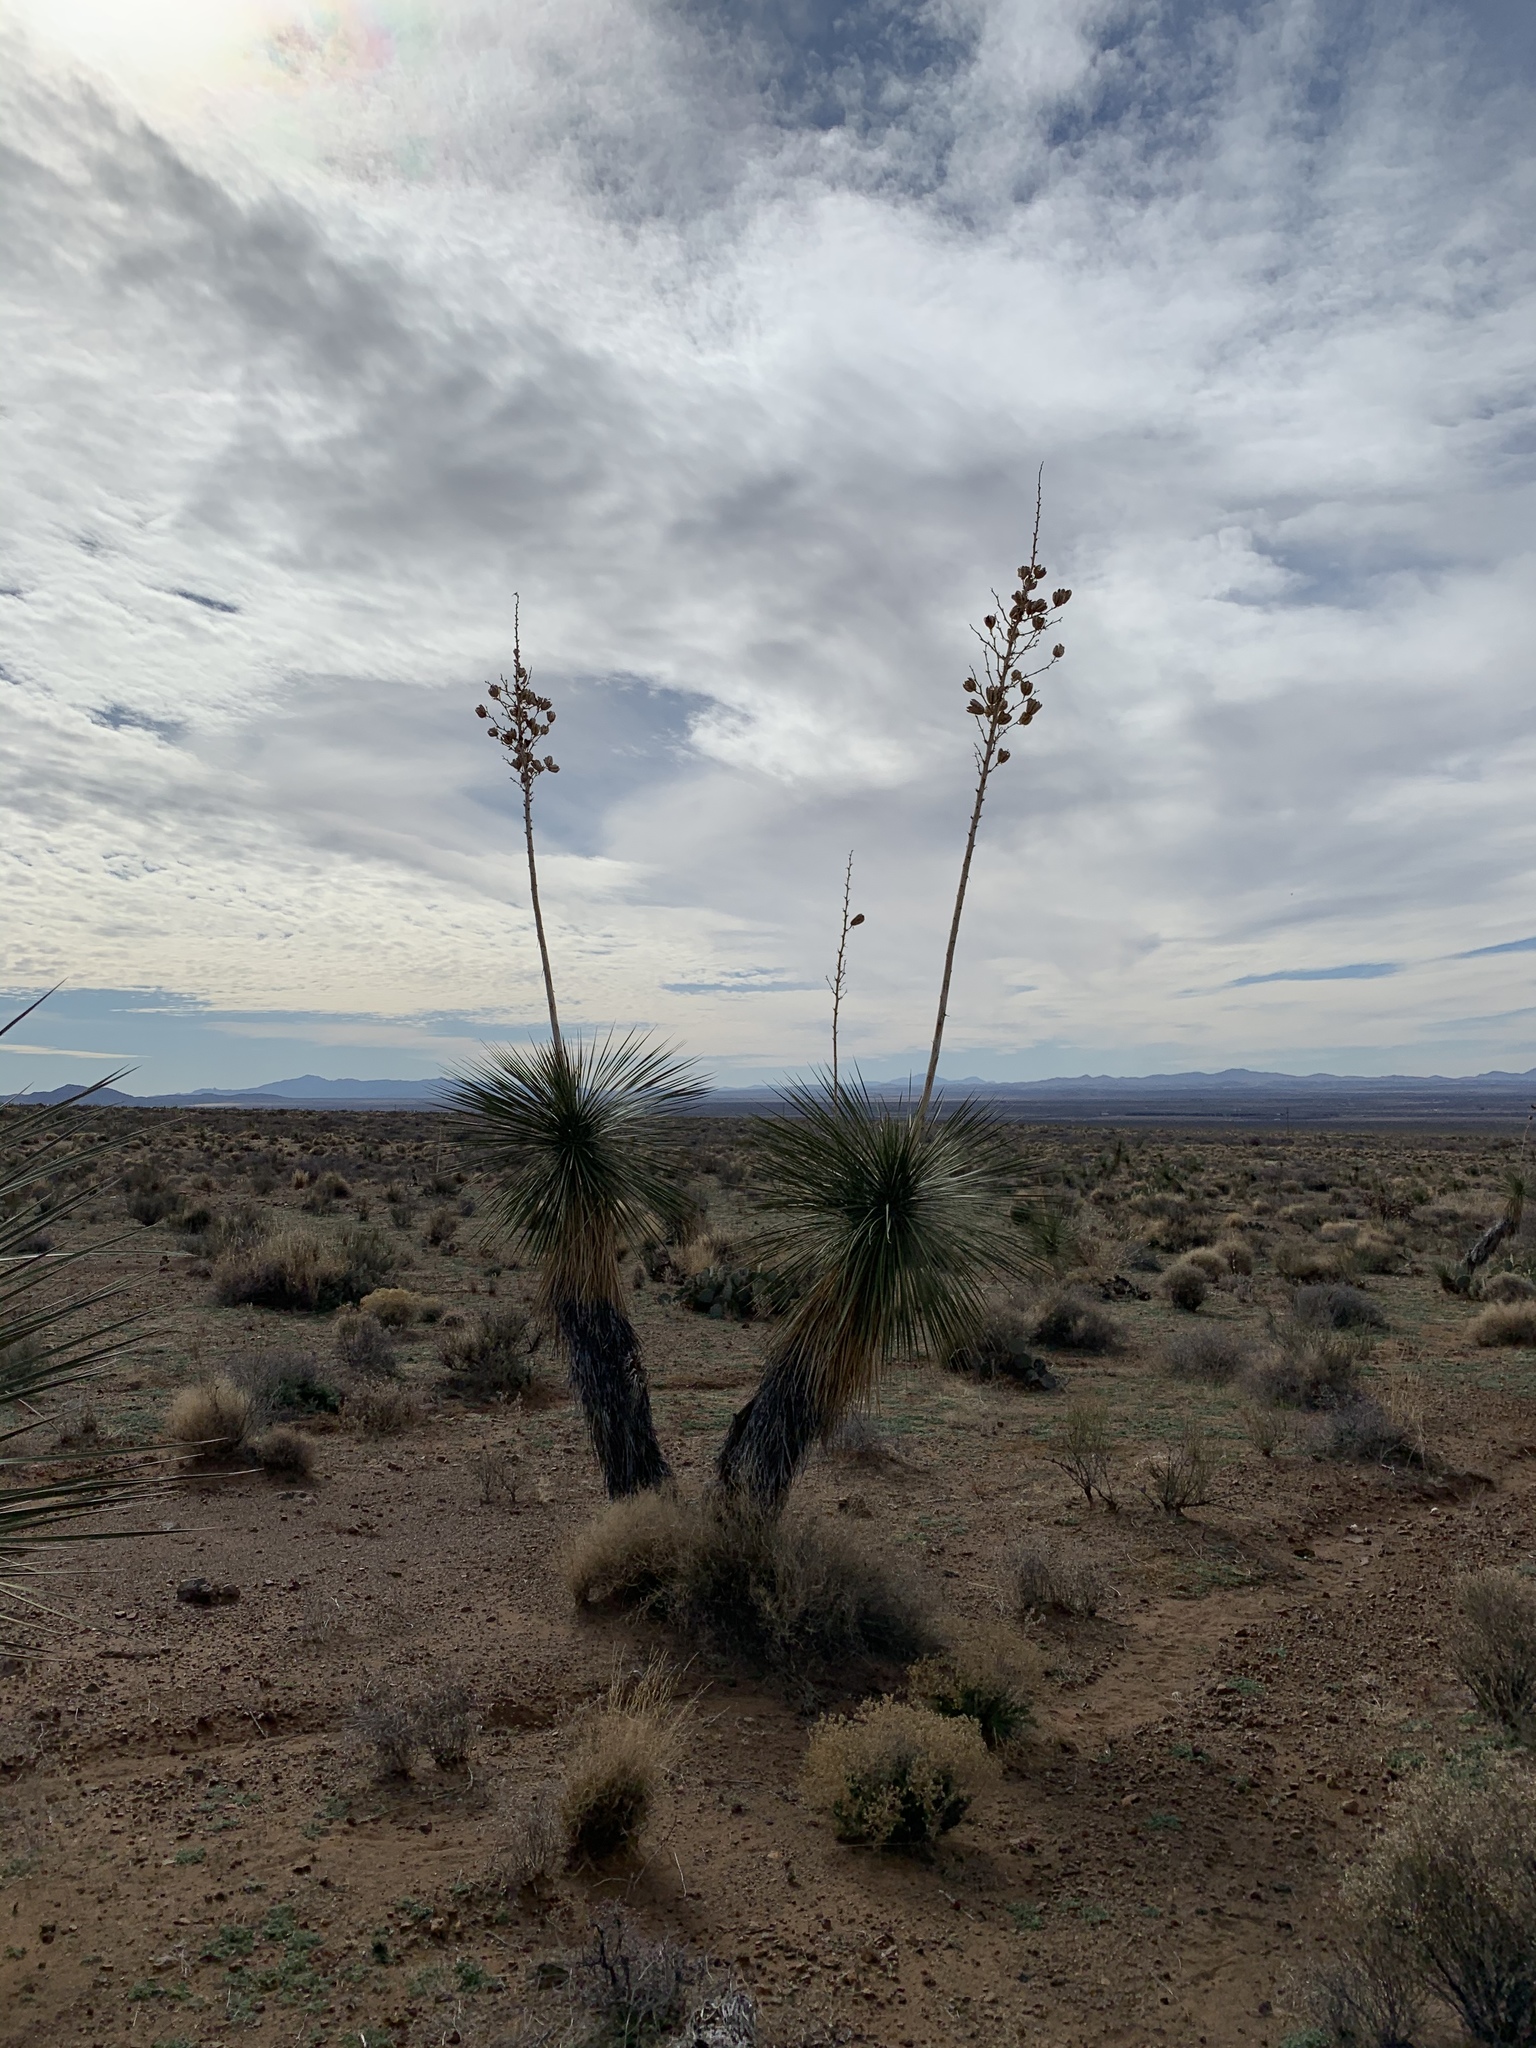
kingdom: Plantae
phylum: Tracheophyta
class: Liliopsida
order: Asparagales
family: Asparagaceae
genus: Yucca
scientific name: Yucca elata
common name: Palmella
